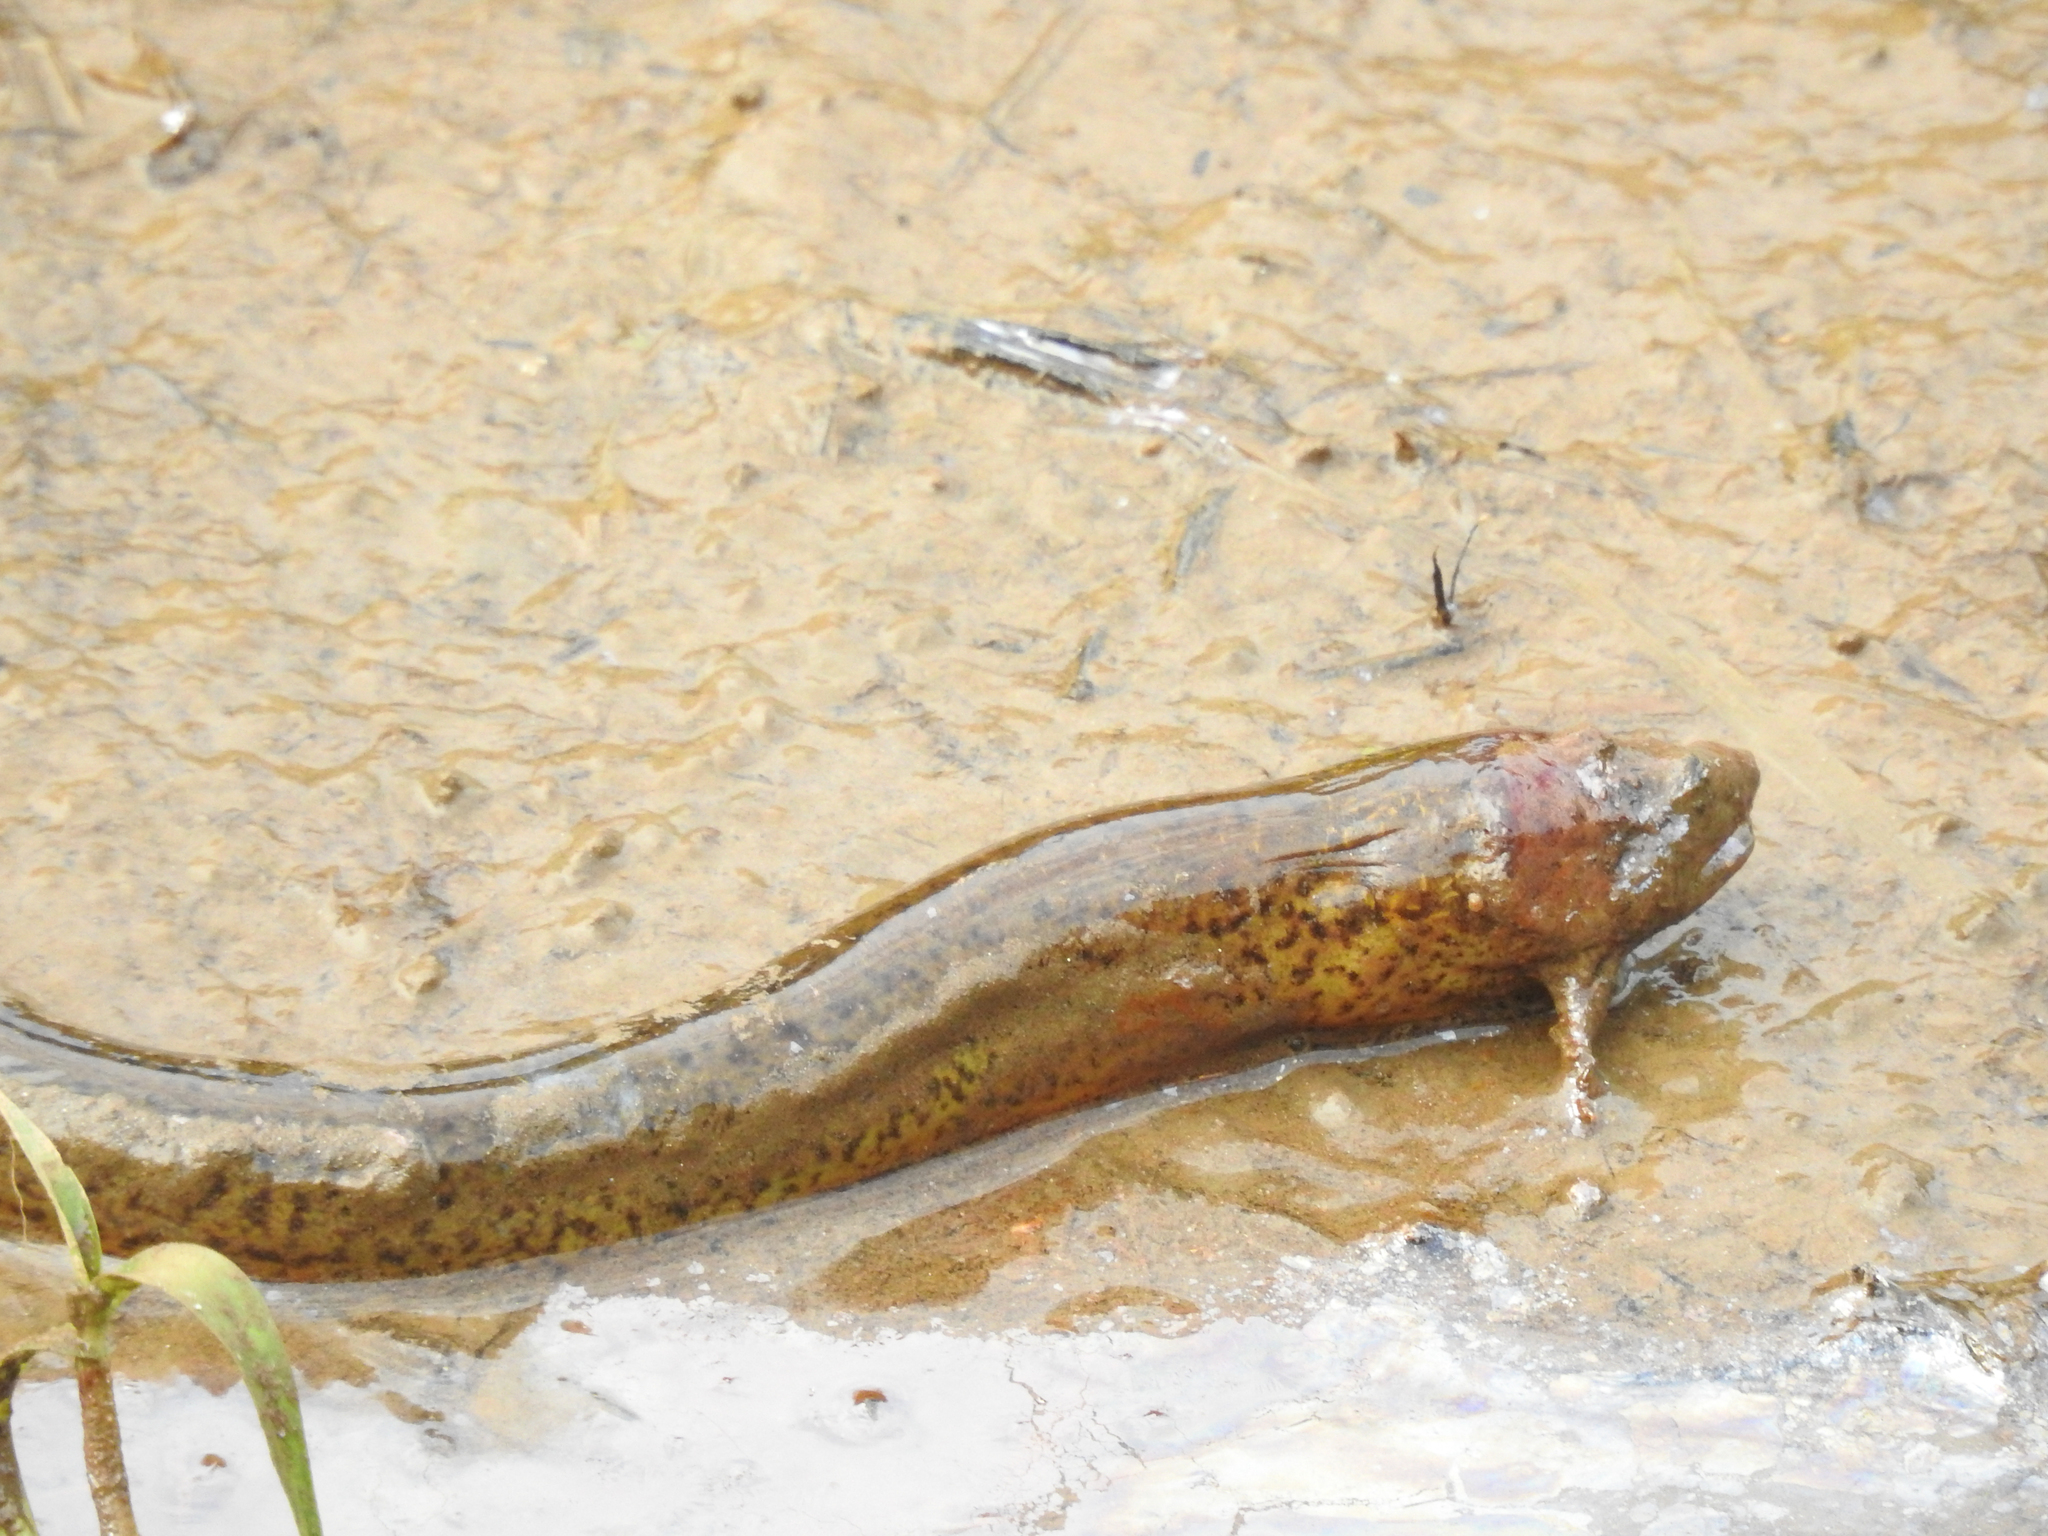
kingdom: Animalia
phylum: Chordata
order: Synbranchiformes
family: Synbranchidae
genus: Monopterus
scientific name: Monopterus albus
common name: Asian swamp eel
